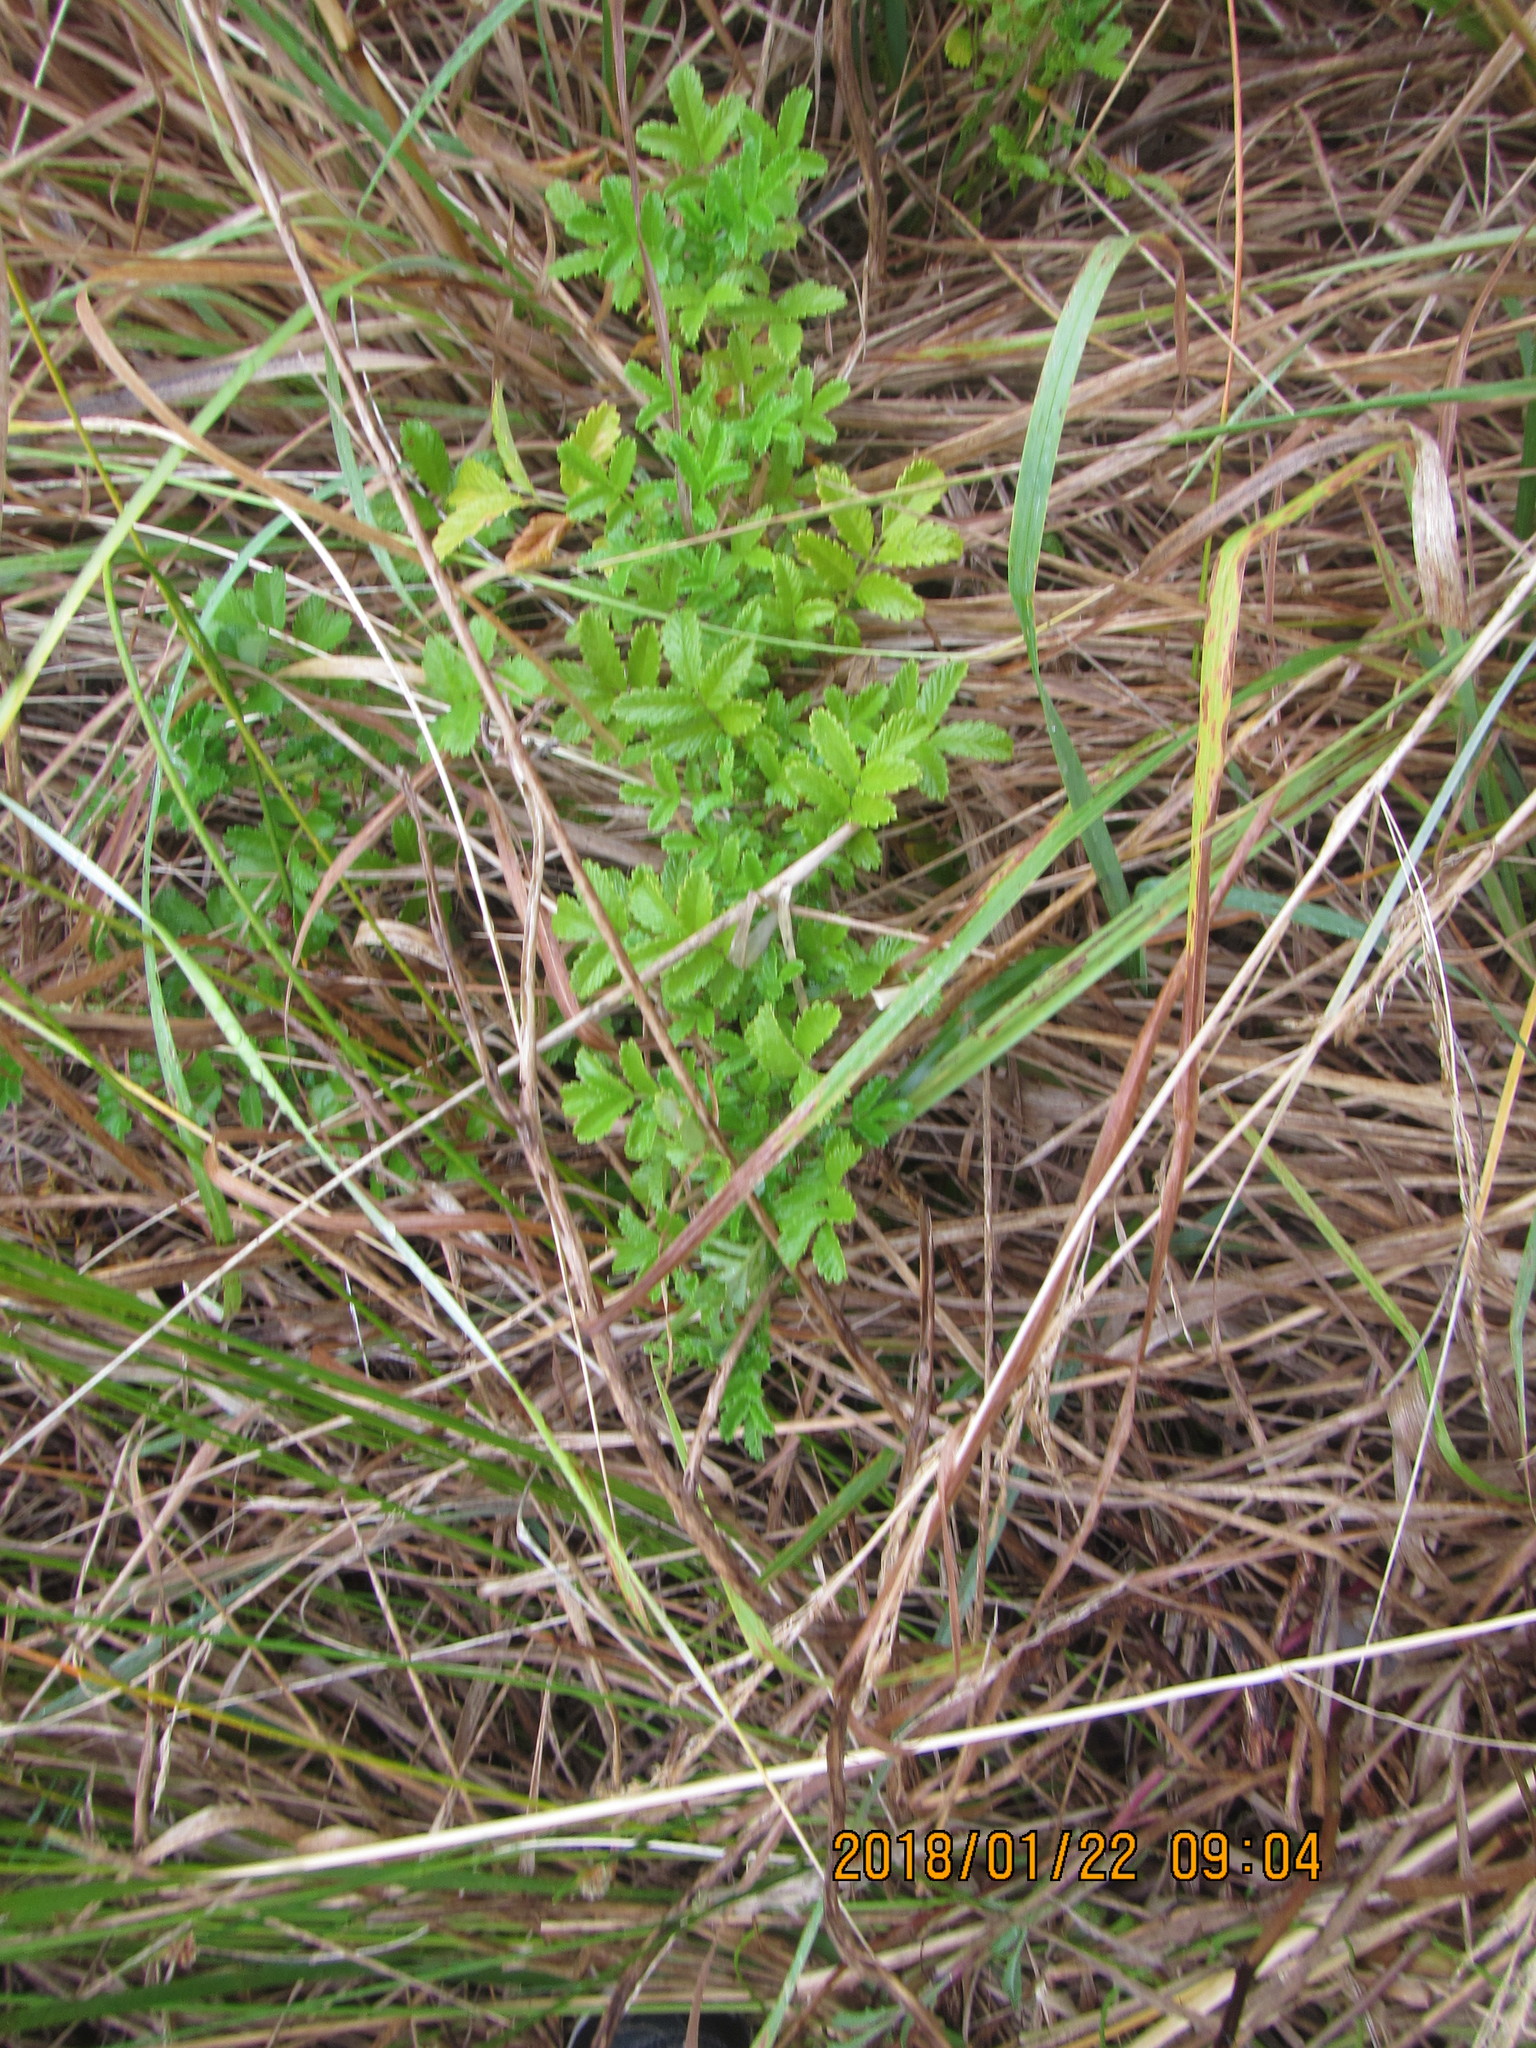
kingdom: Plantae
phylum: Tracheophyta
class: Magnoliopsida
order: Rosales
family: Rosaceae
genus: Acaena
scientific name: Acaena novae-zelandiae
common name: Pirri-pirri-bur
